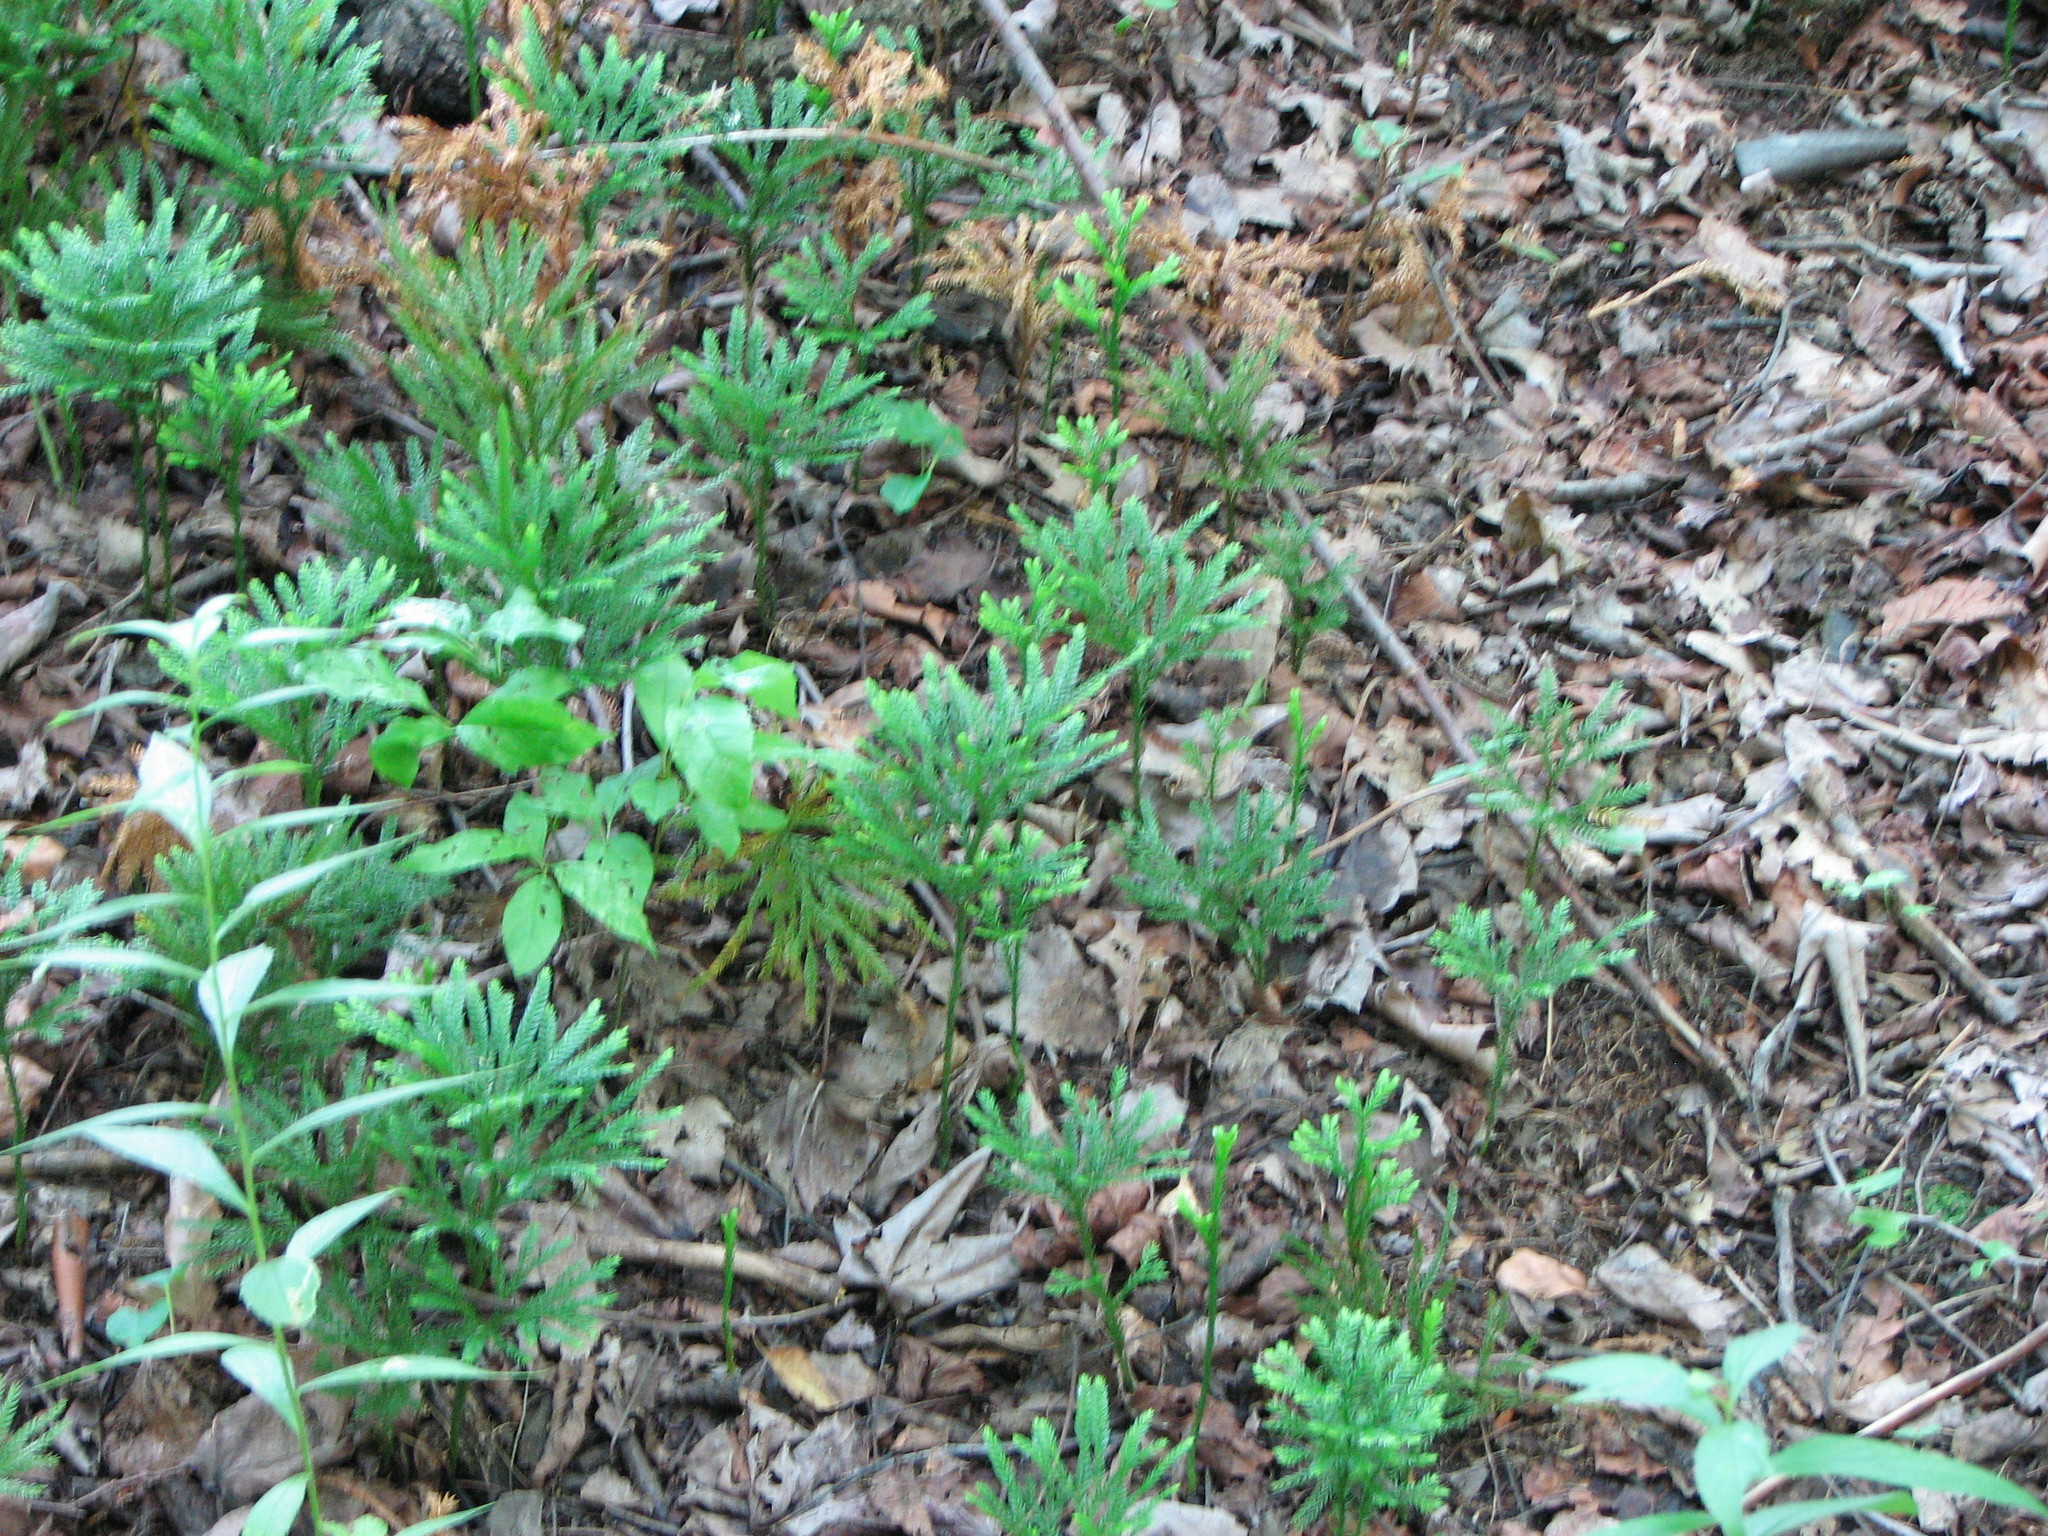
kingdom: Plantae
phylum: Tracheophyta
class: Lycopodiopsida
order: Lycopodiales
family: Lycopodiaceae
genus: Dendrolycopodium
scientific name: Dendrolycopodium obscurum
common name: Common ground-pine
